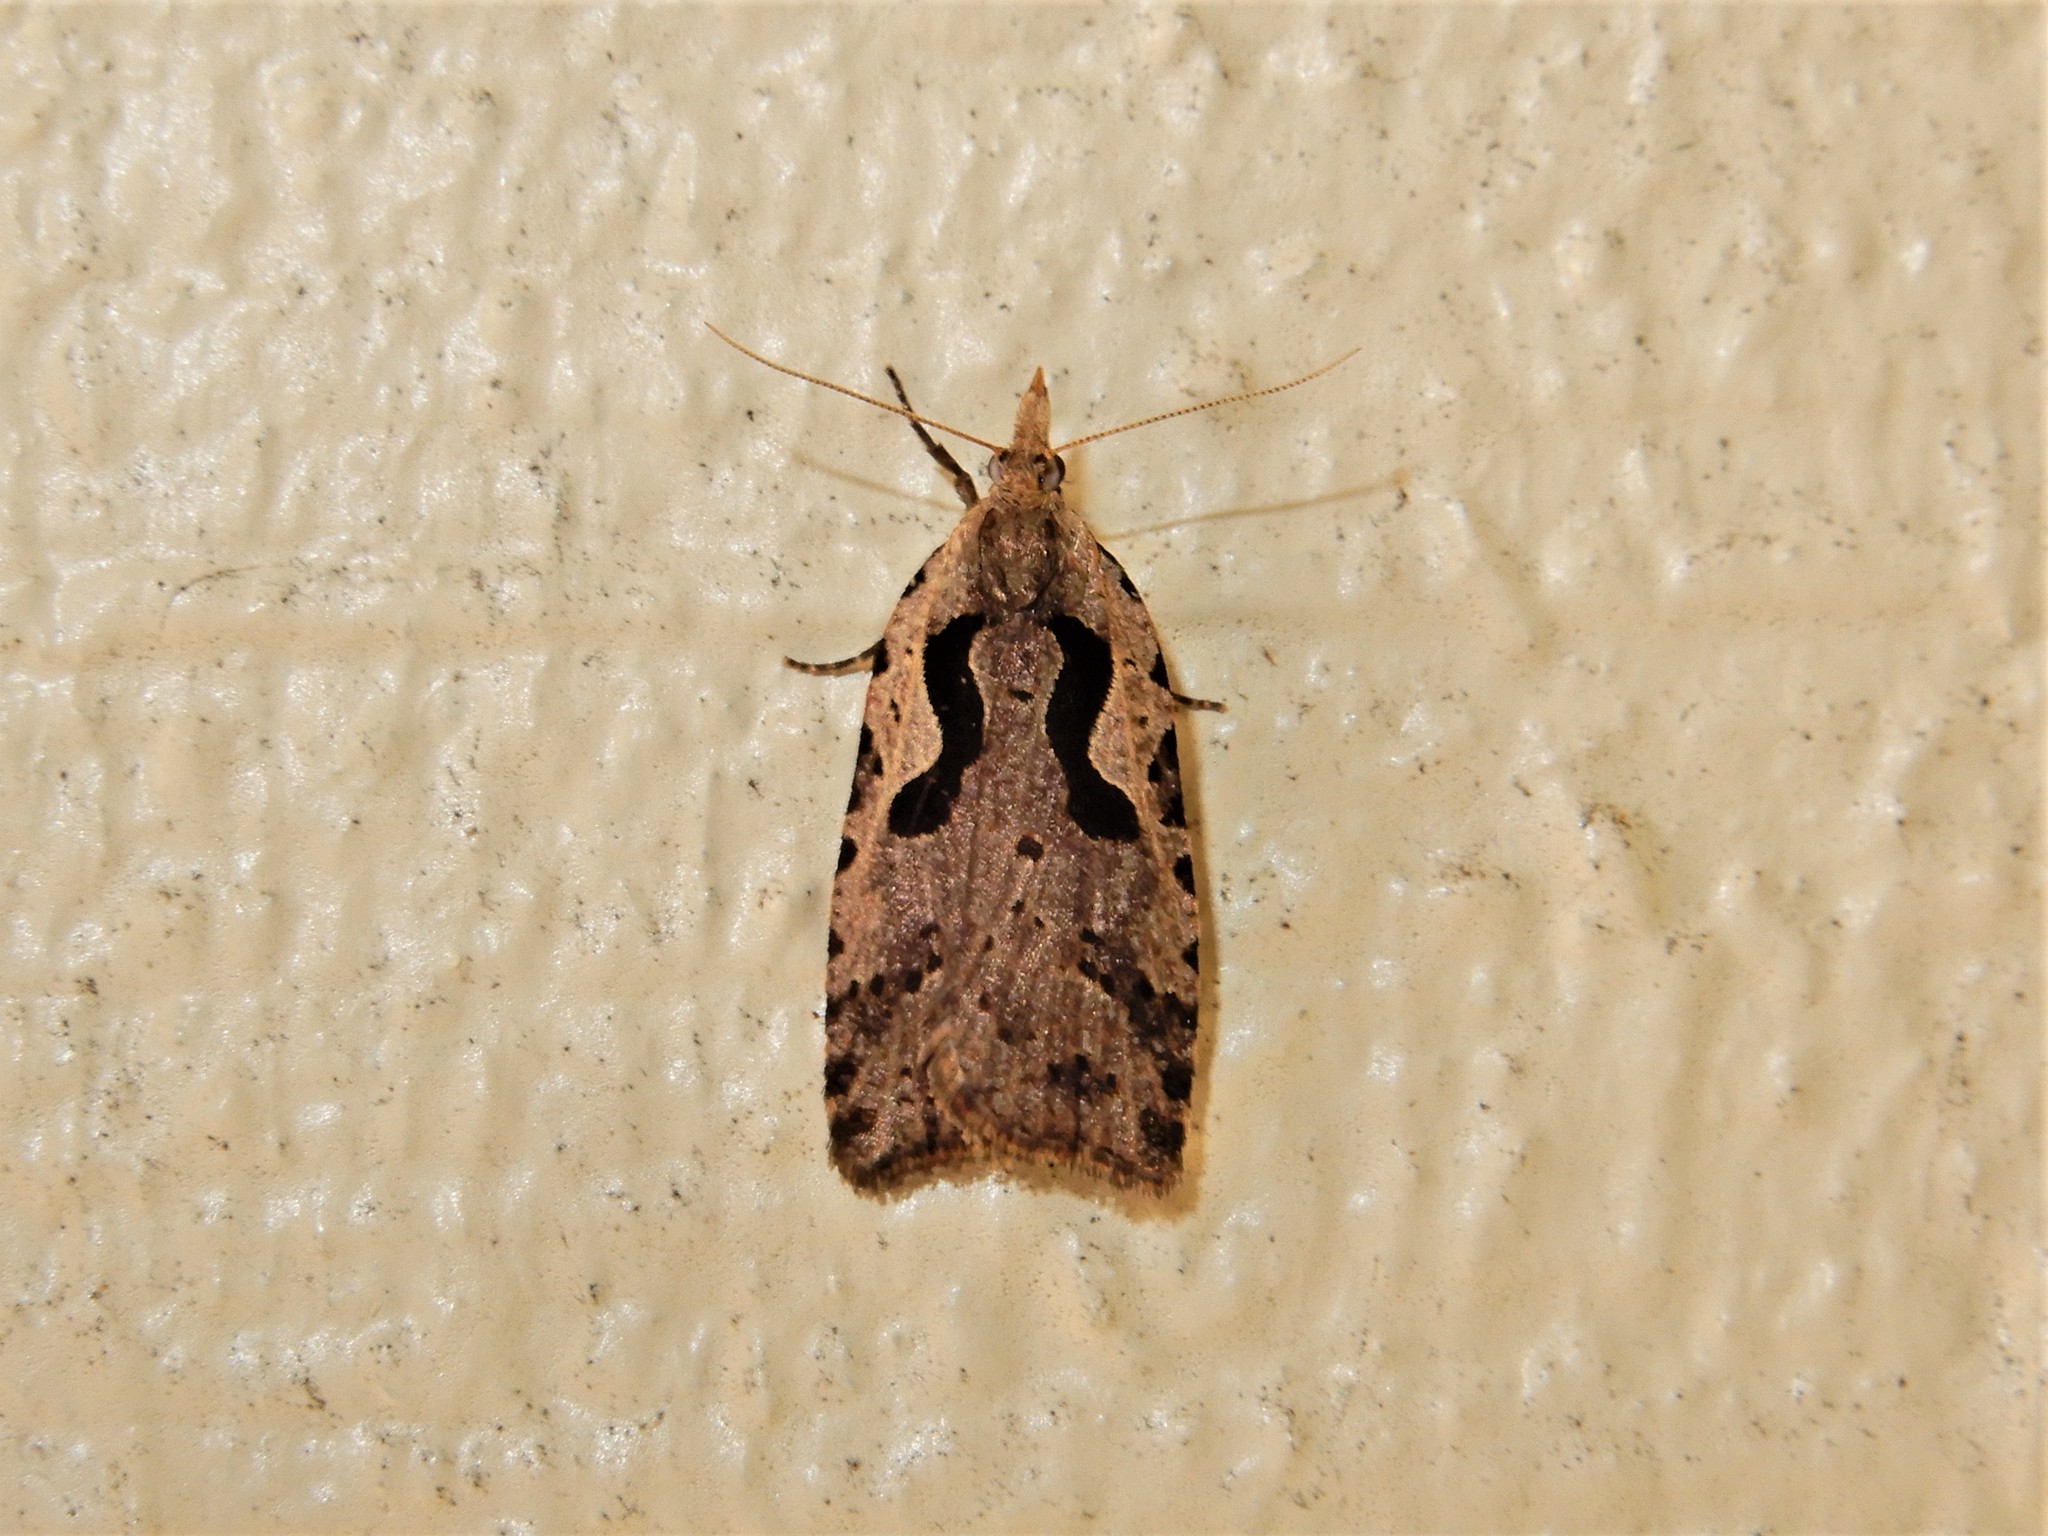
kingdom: Animalia
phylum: Arthropoda
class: Insecta
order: Lepidoptera
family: Tortricidae
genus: Cnephasia
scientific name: Cnephasia jactatana
